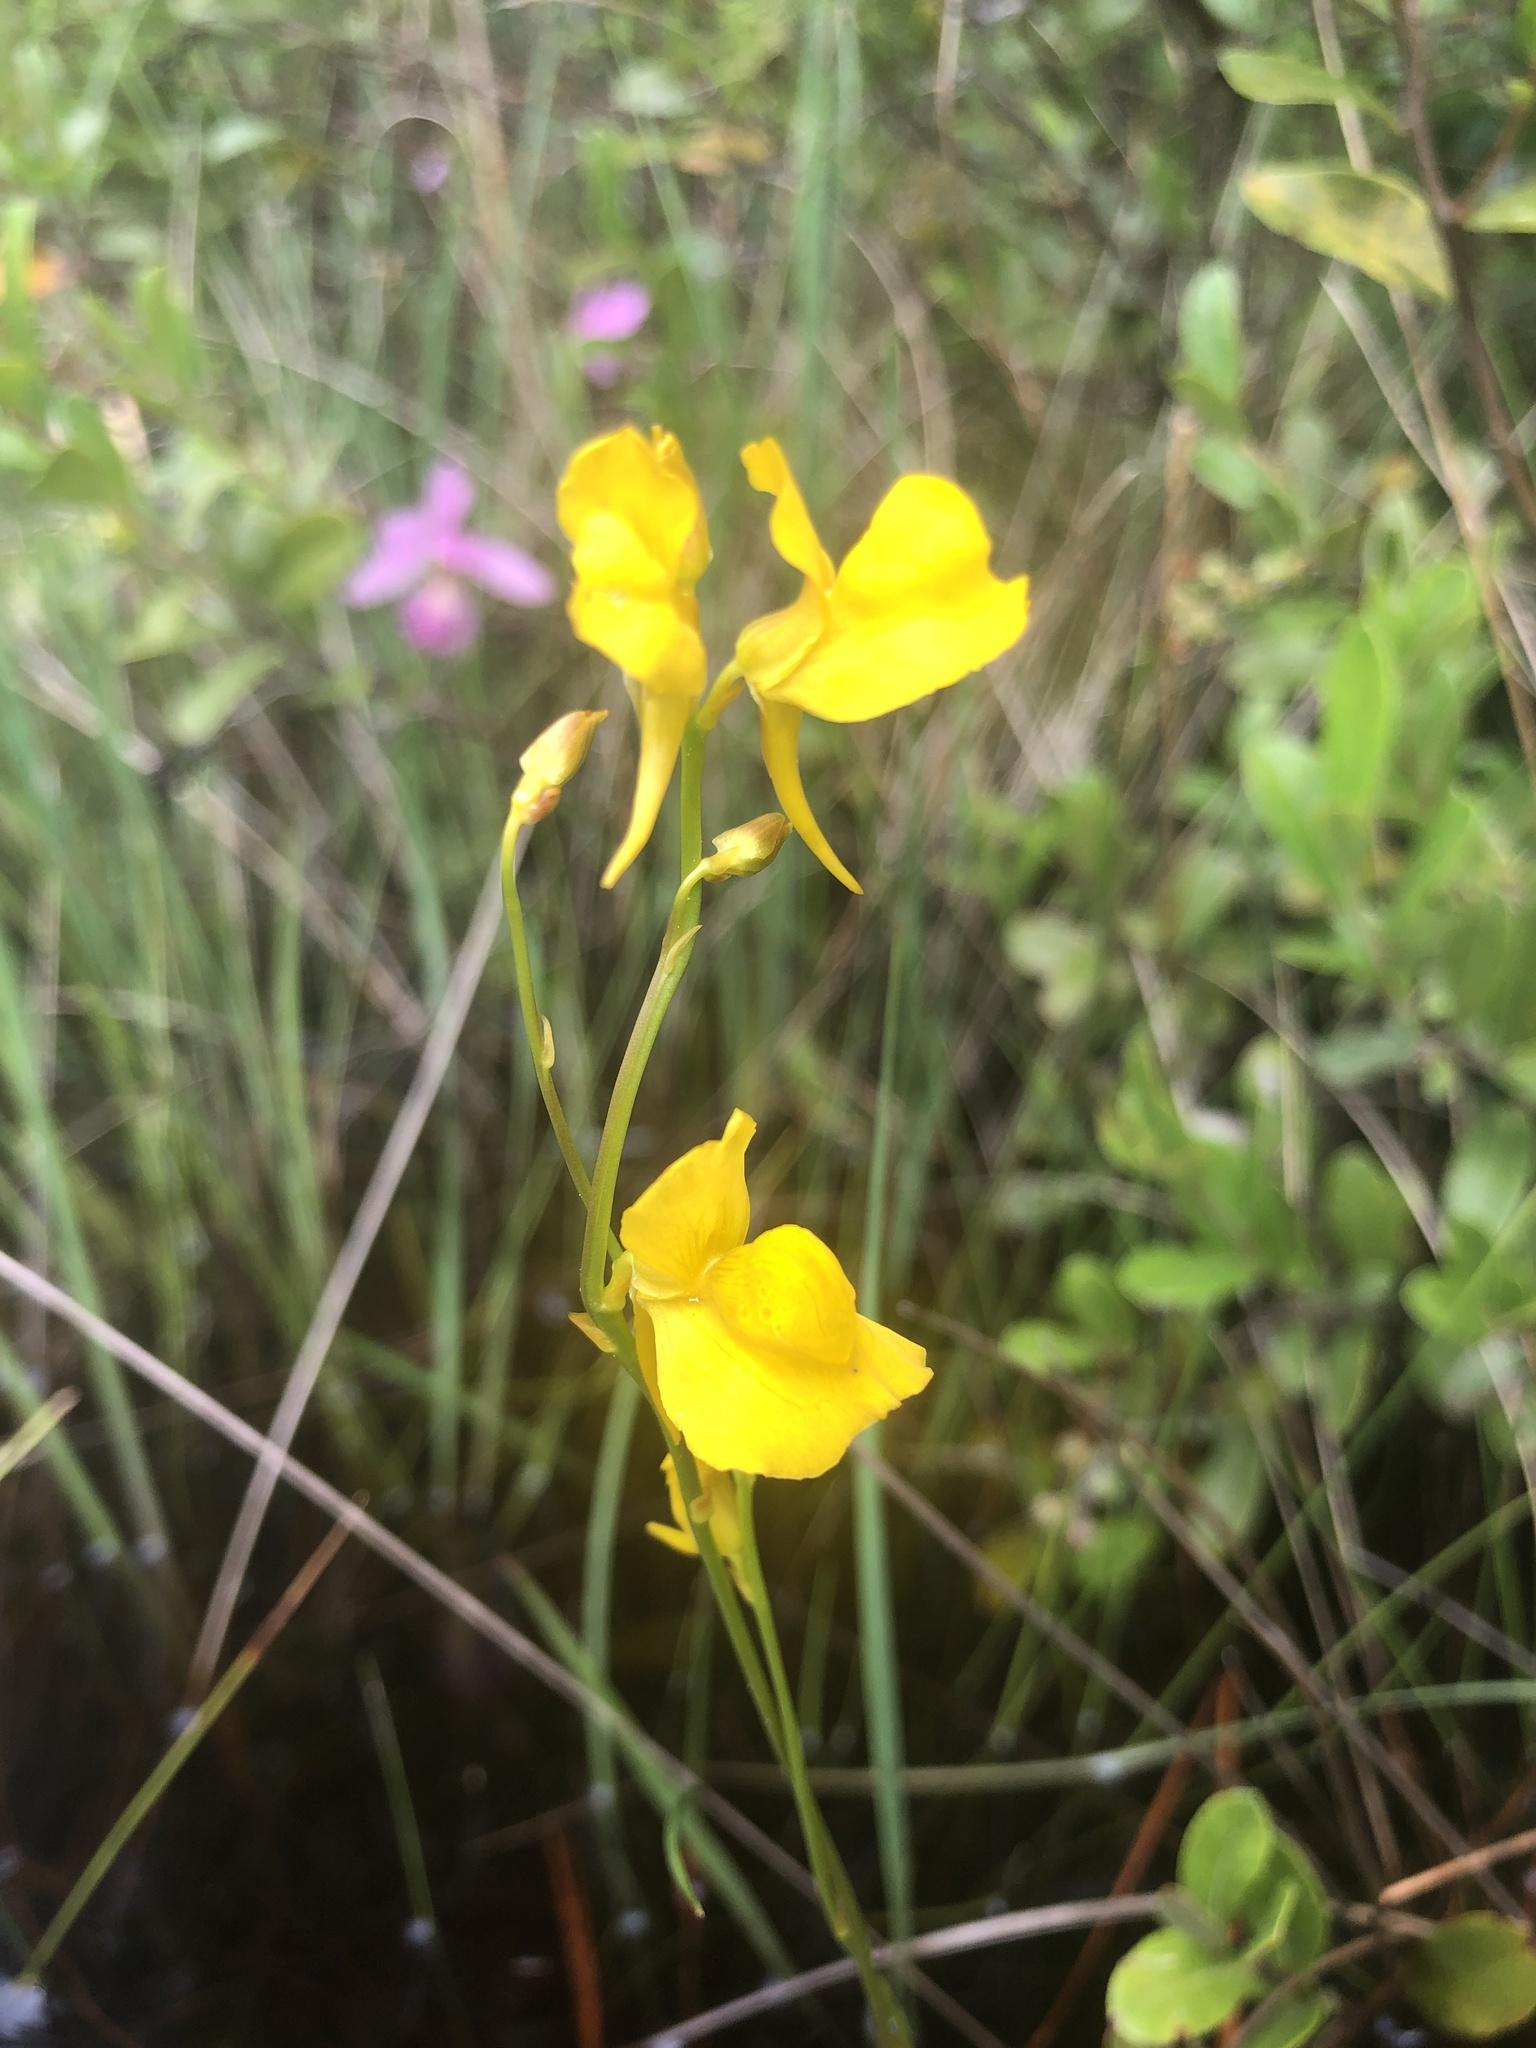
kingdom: Plantae
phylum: Tracheophyta
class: Magnoliopsida
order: Lamiales
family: Lentibulariaceae
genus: Utricularia
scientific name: Utricularia cornuta
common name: Horned bladderwort
